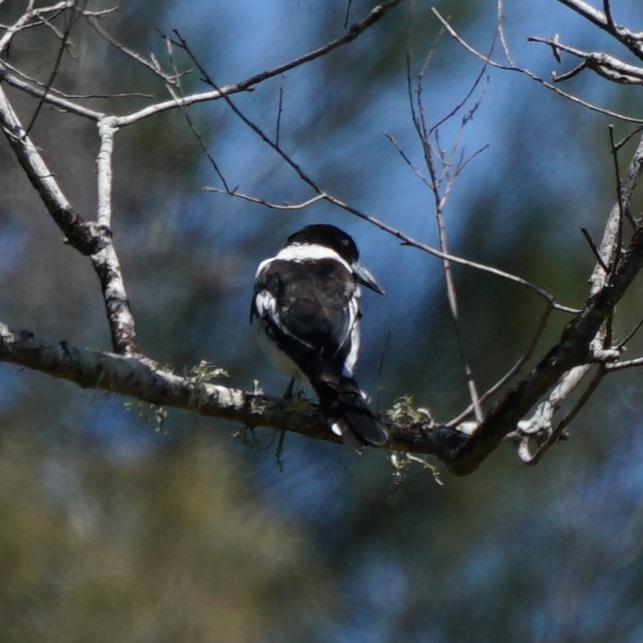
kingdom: Animalia
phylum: Chordata
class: Aves
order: Passeriformes
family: Cracticidae
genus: Cracticus
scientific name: Cracticus nigrogularis
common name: Pied butcherbird
